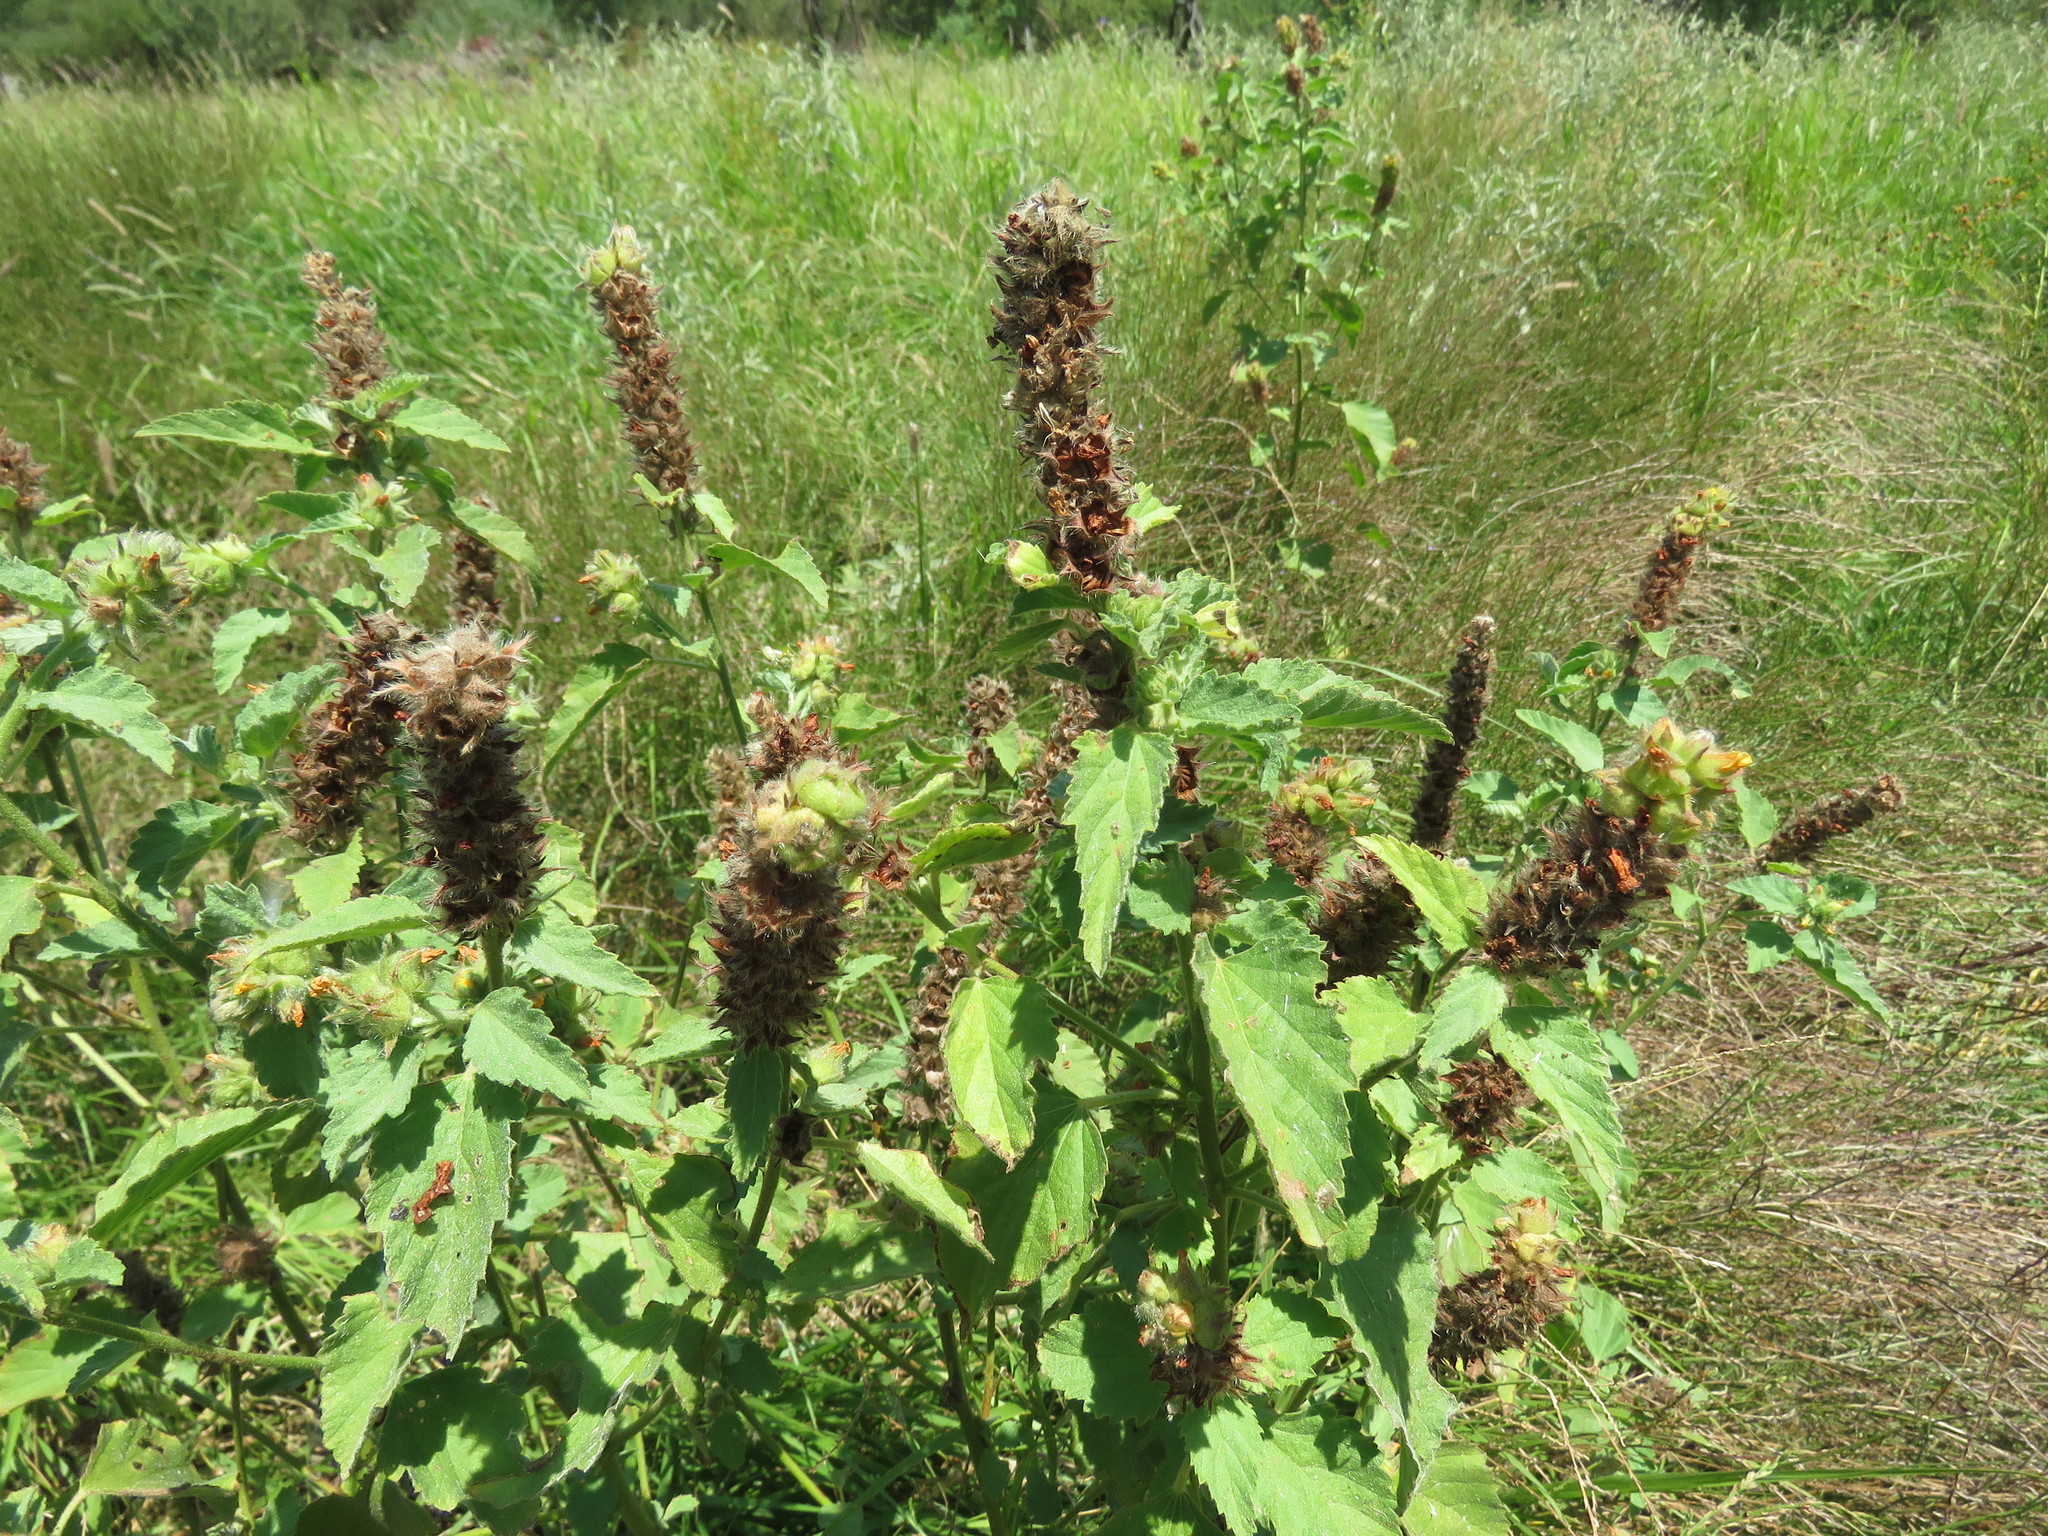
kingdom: Plantae
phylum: Tracheophyta
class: Magnoliopsida
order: Malvales
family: Malvaceae
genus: Malvastrum
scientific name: Malvastrum americanum
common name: Spiked malvastrum
